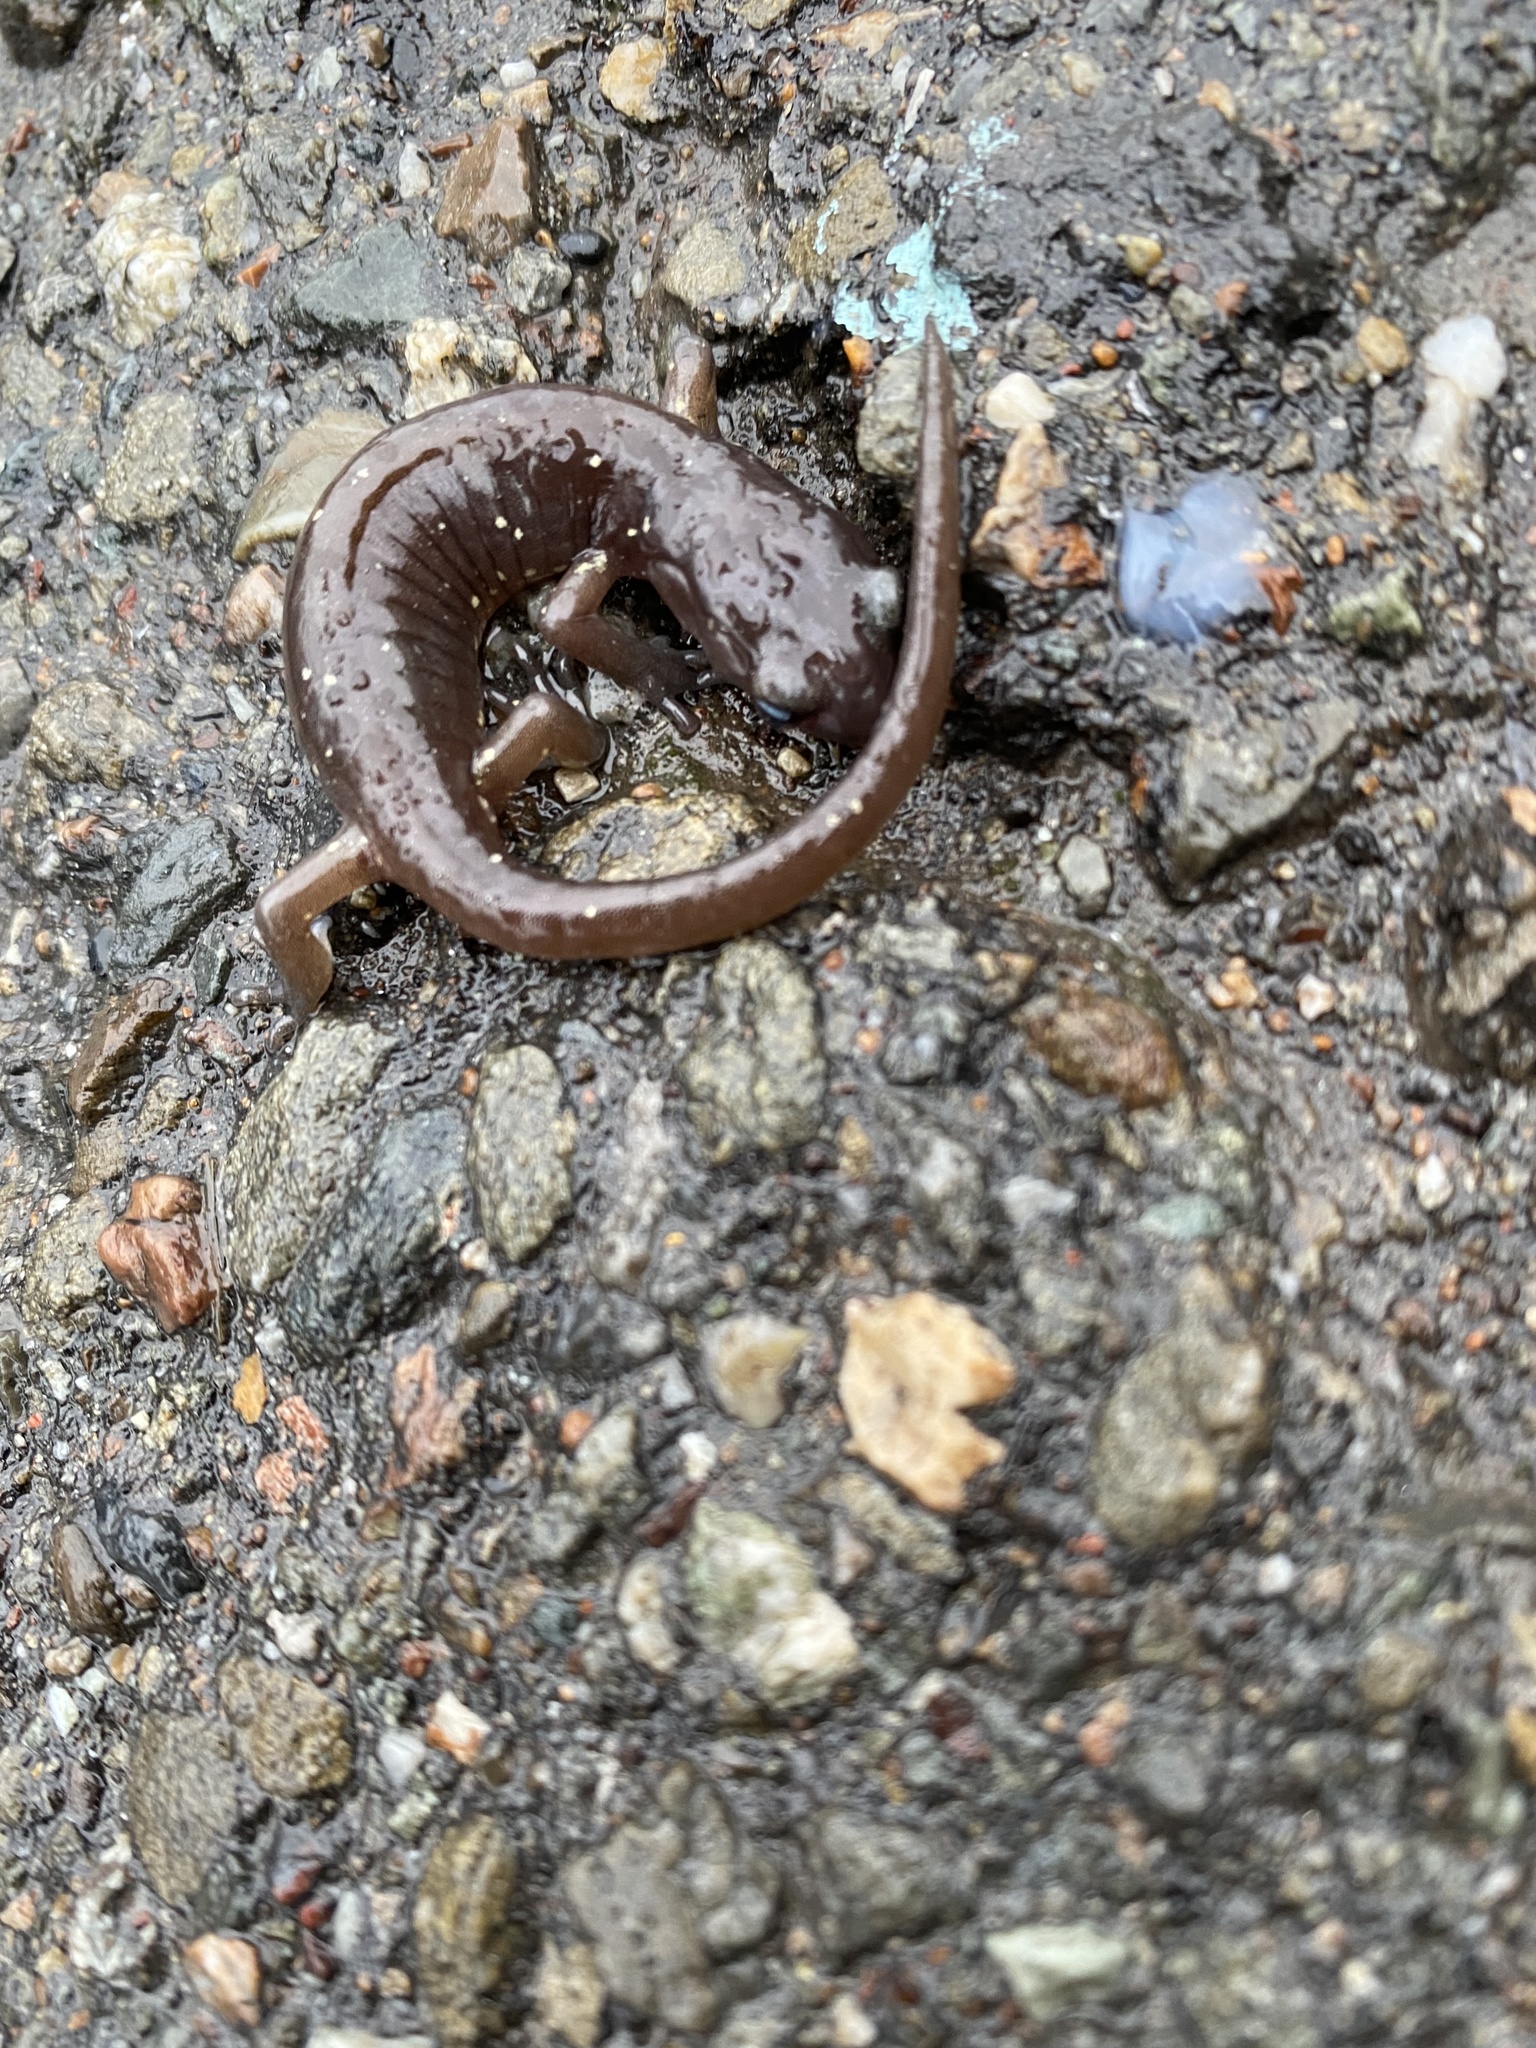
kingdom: Animalia
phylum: Chordata
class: Amphibia
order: Caudata
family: Plethodontidae
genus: Aneides
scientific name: Aneides lugubris
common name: Arboreal salamander
